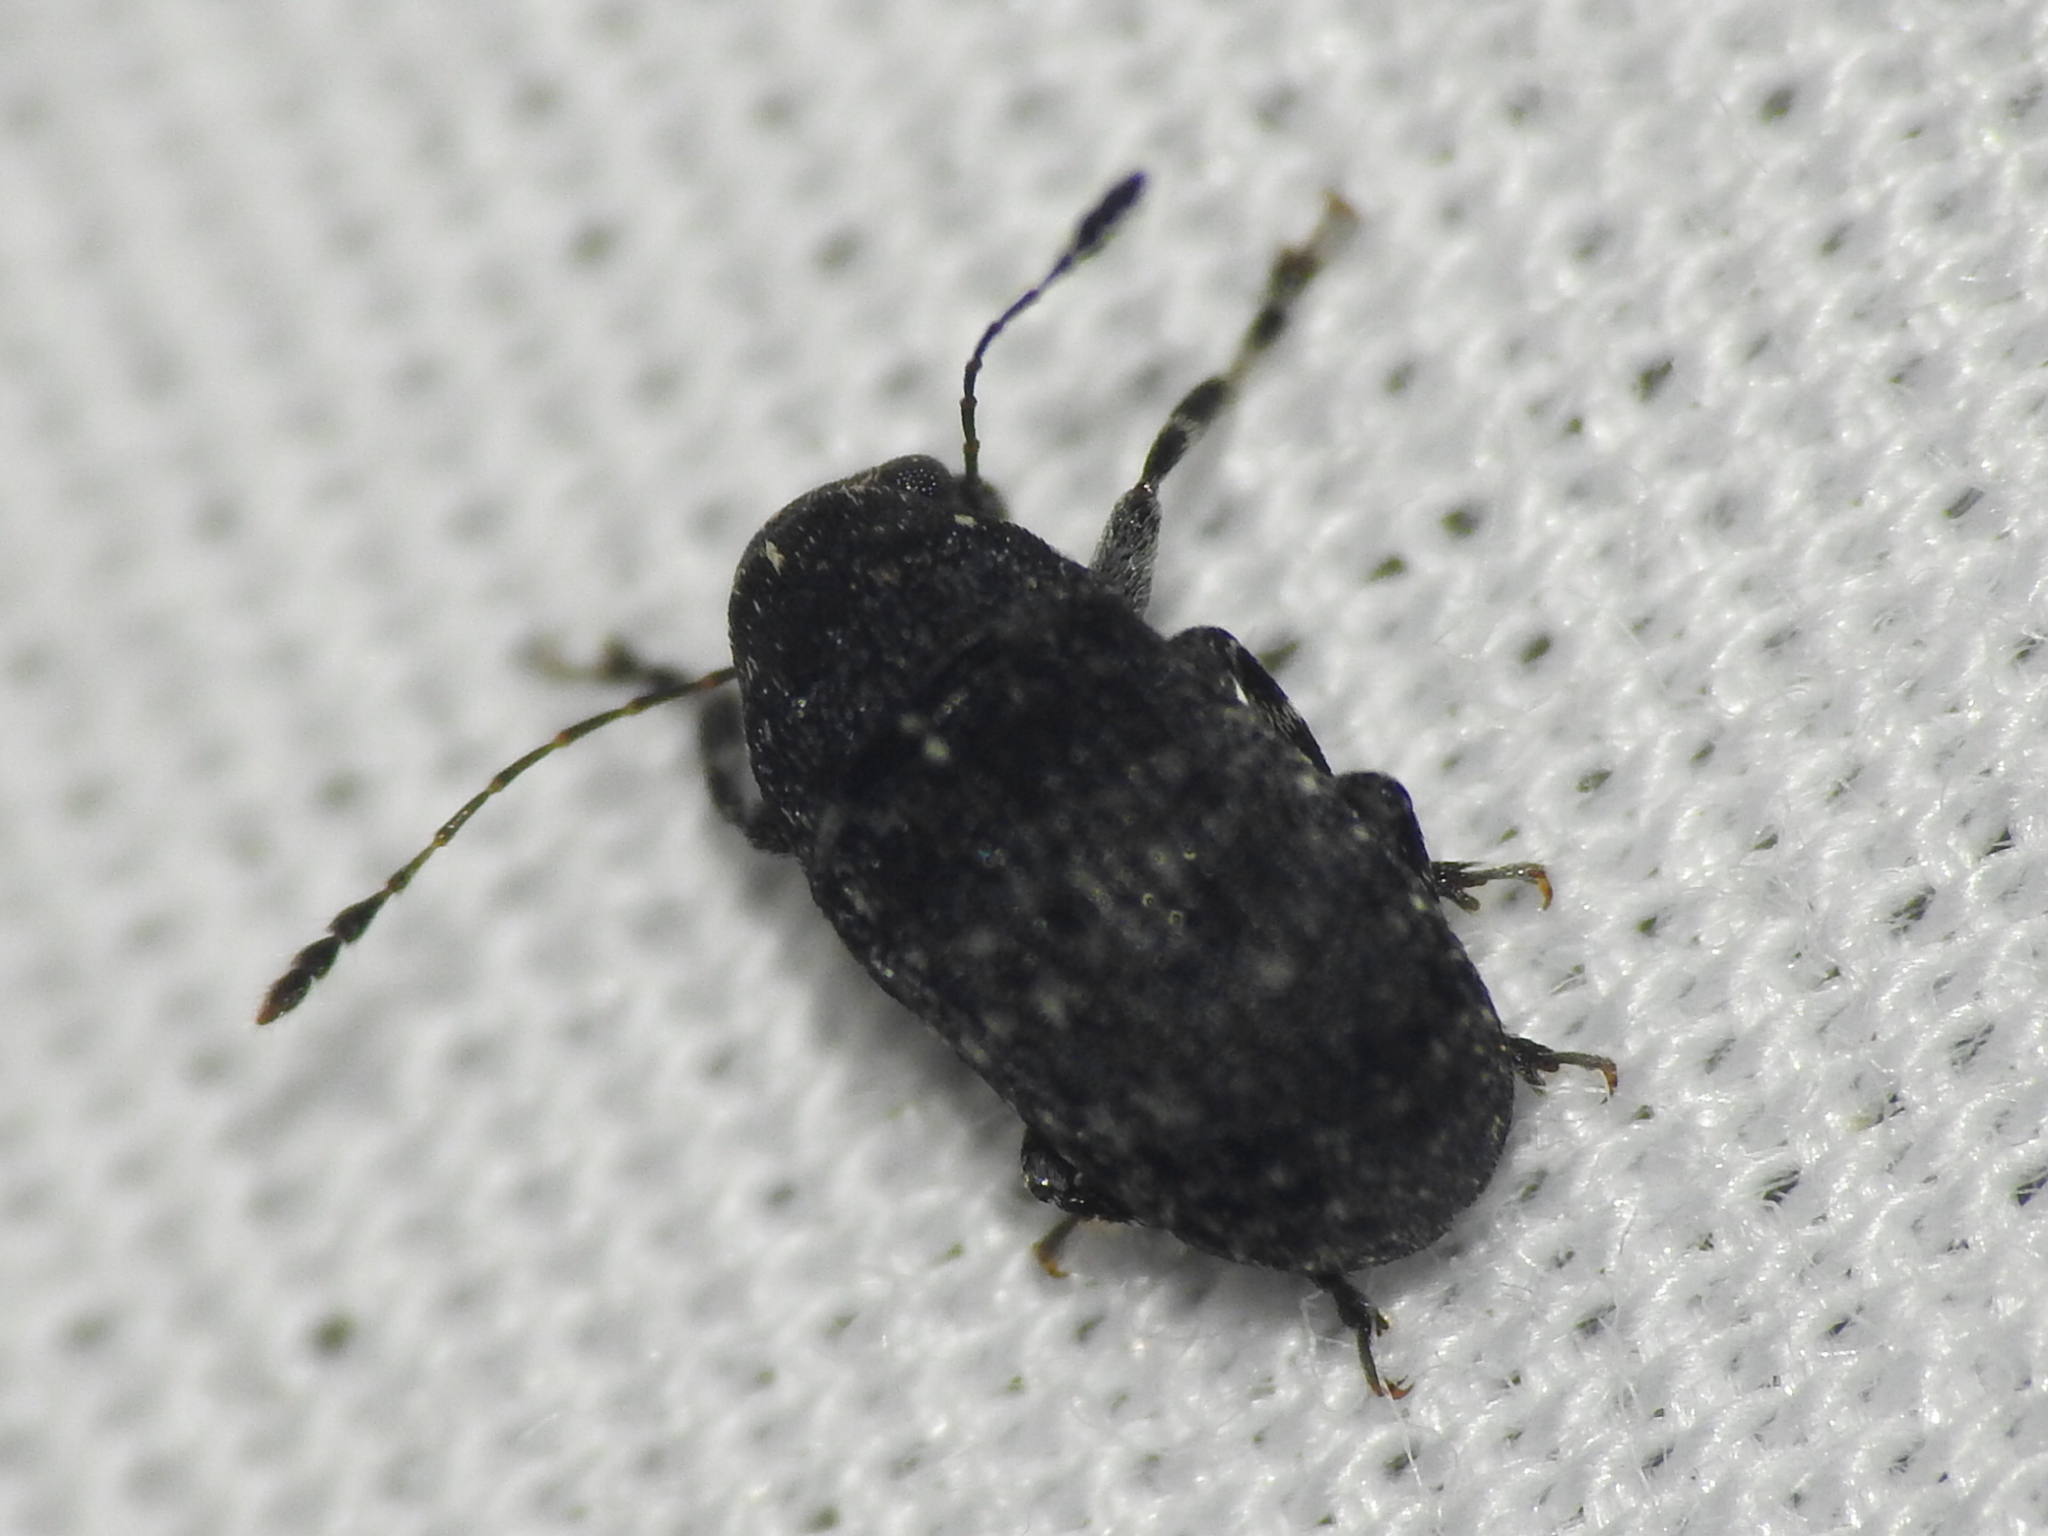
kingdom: Animalia
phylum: Arthropoda
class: Insecta
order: Coleoptera
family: Anthribidae
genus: Piesocorynus
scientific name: Piesocorynus moestus
